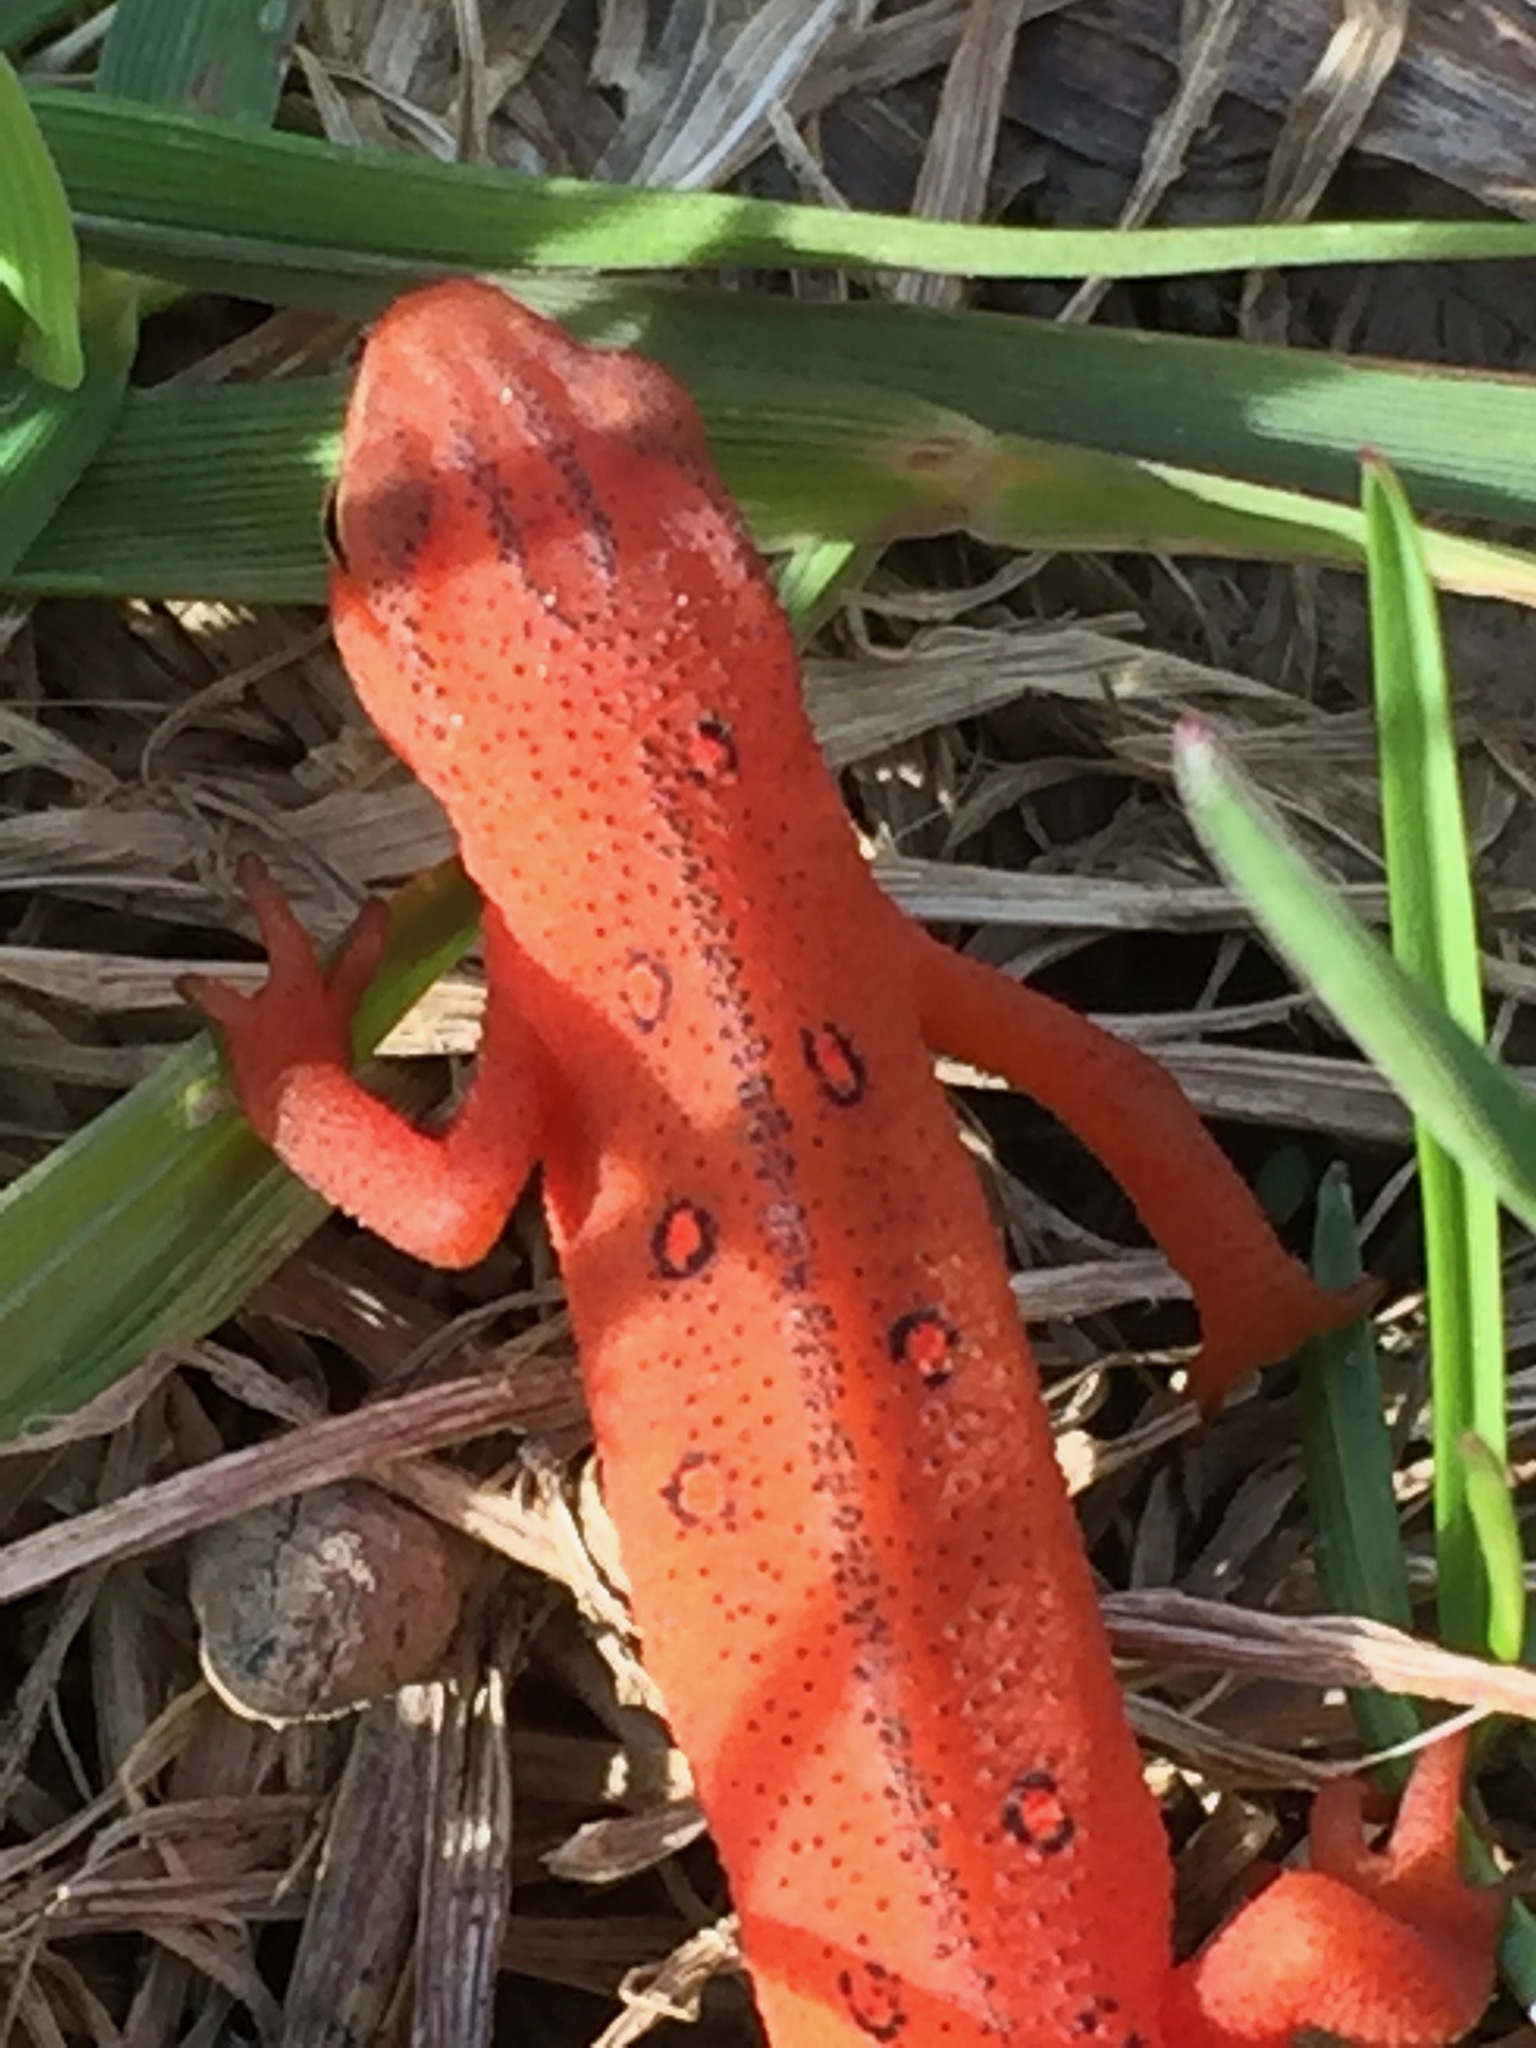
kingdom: Animalia
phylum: Chordata
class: Amphibia
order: Caudata
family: Salamandridae
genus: Notophthalmus
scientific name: Notophthalmus viridescens
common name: Eastern newt
